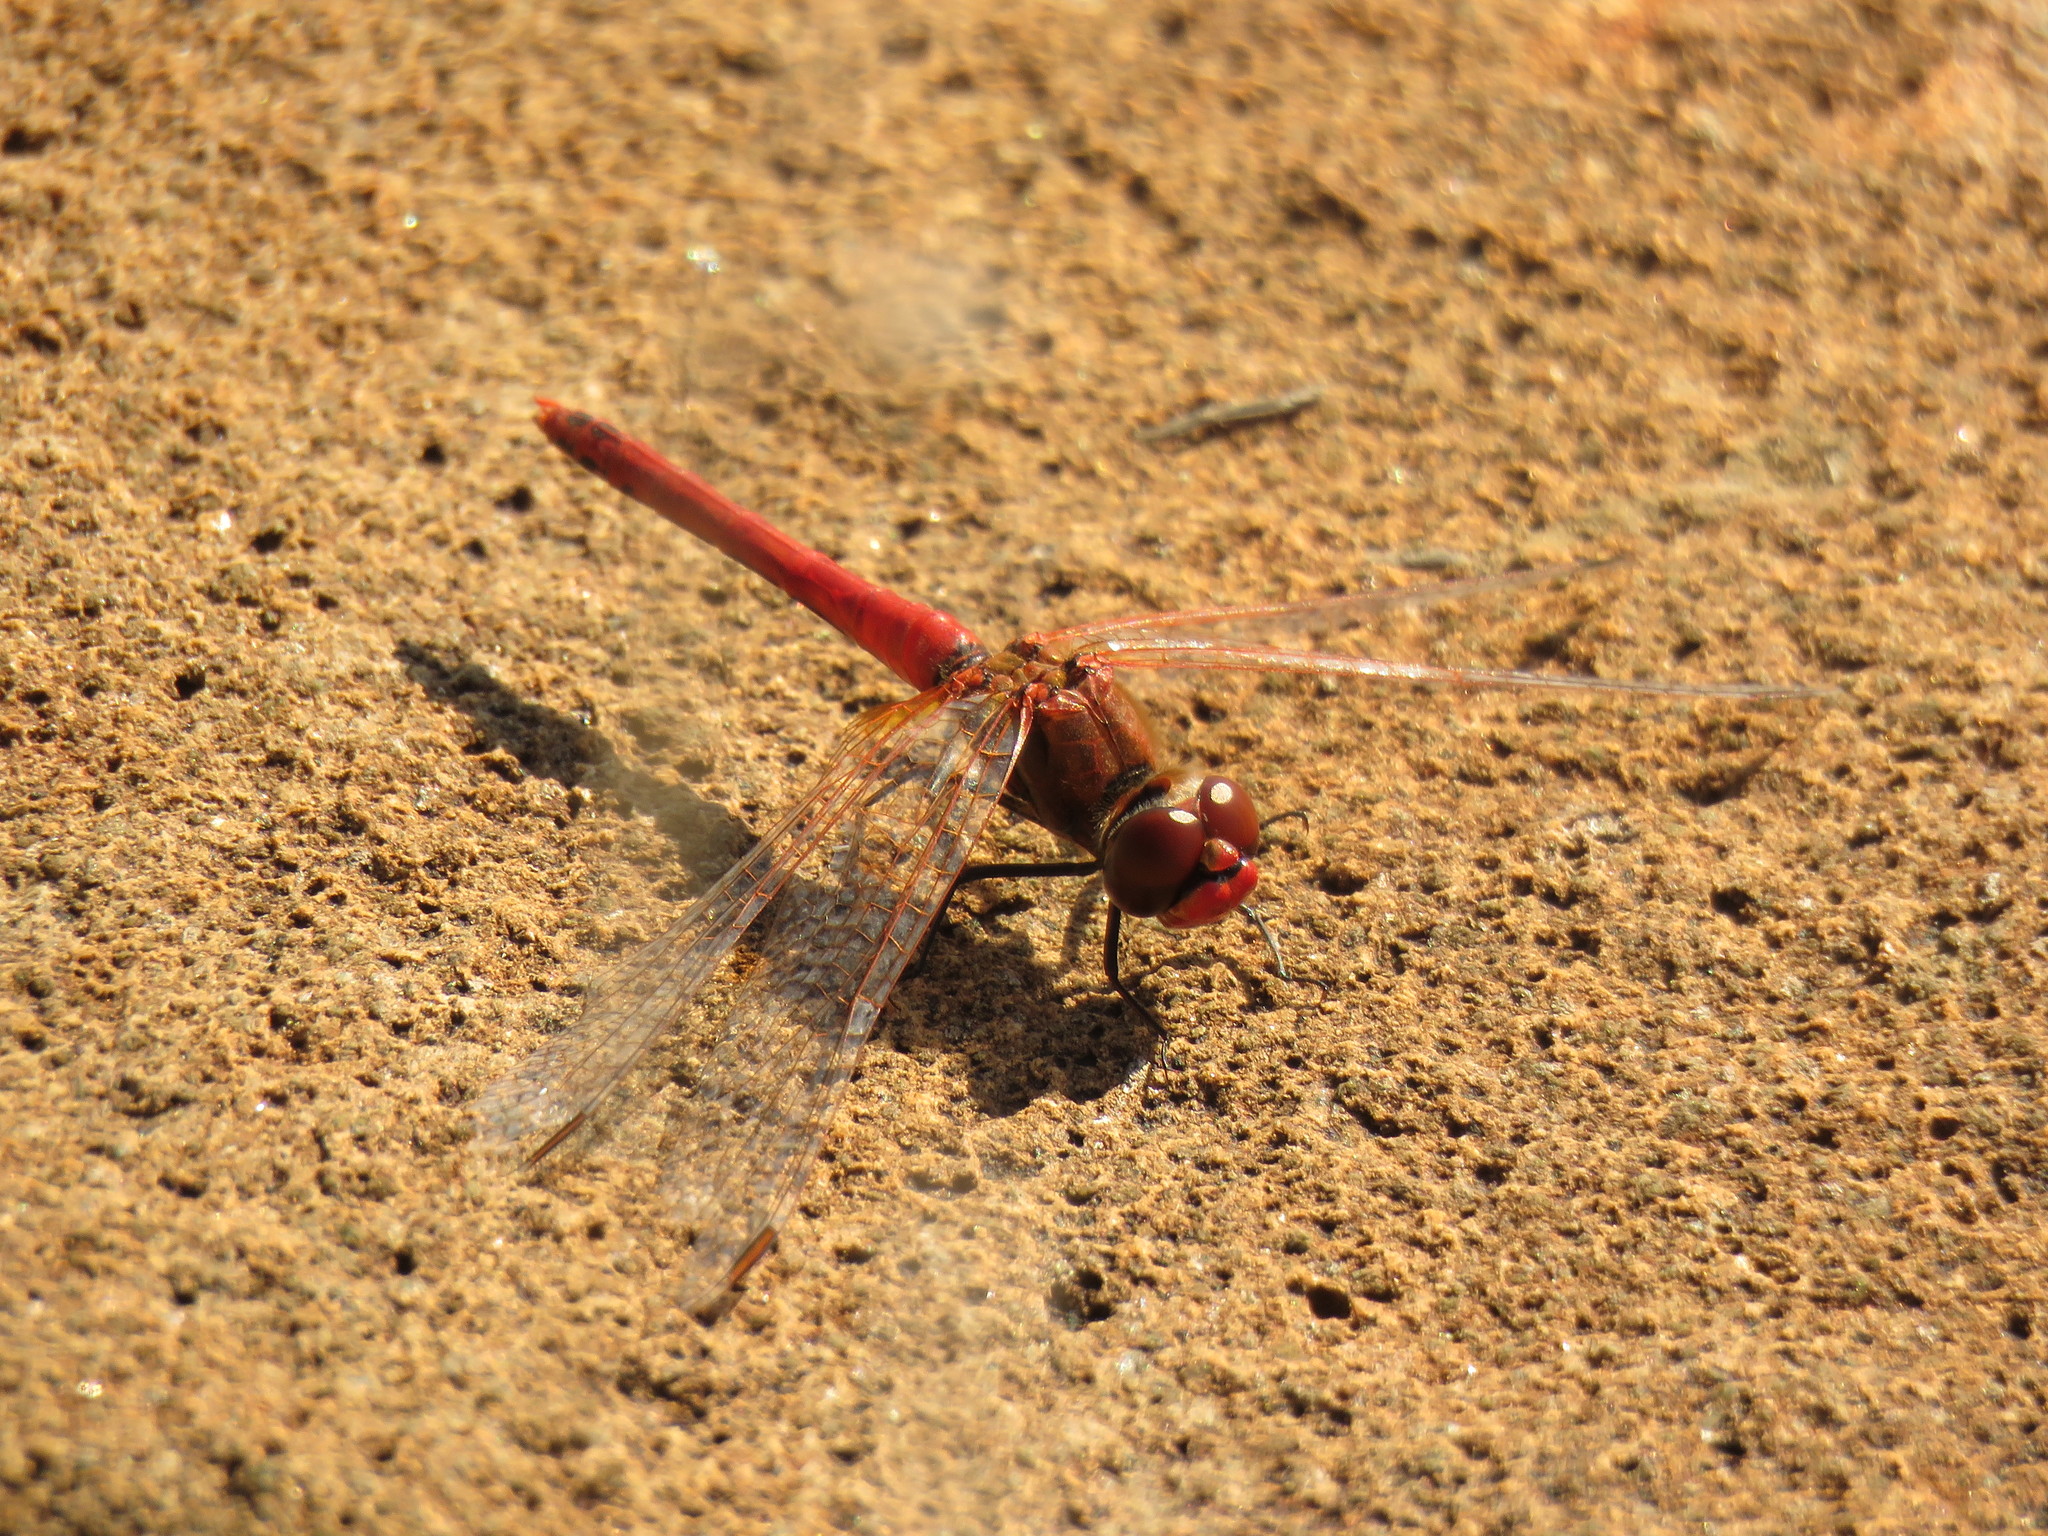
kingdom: Animalia
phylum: Arthropoda
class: Insecta
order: Odonata
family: Libellulidae
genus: Sympetrum
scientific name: Sympetrum fonscolombii
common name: Red-veined darter
